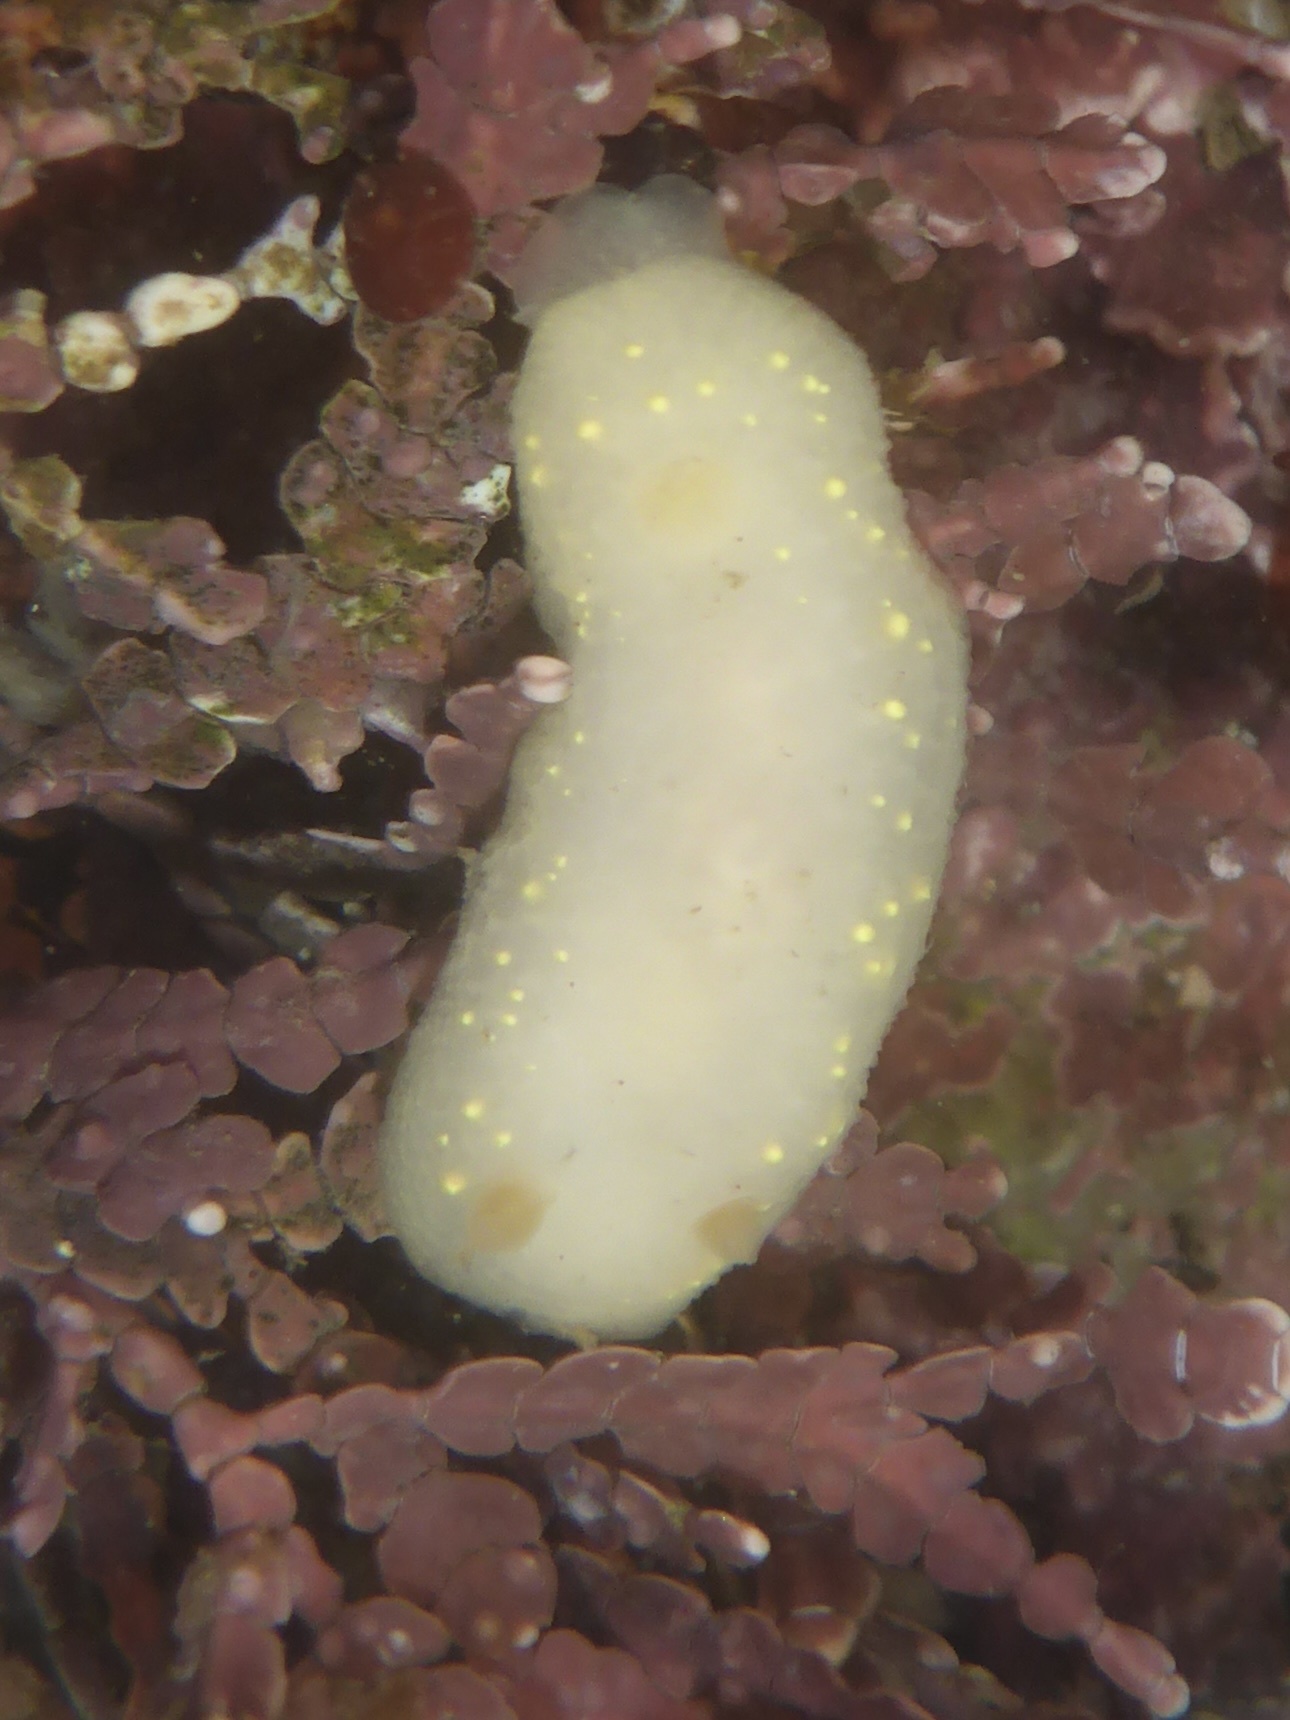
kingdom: Animalia
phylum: Mollusca
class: Gastropoda
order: Nudibranchia
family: Cadlinidae
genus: Cadlina
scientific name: Cadlina modesta
